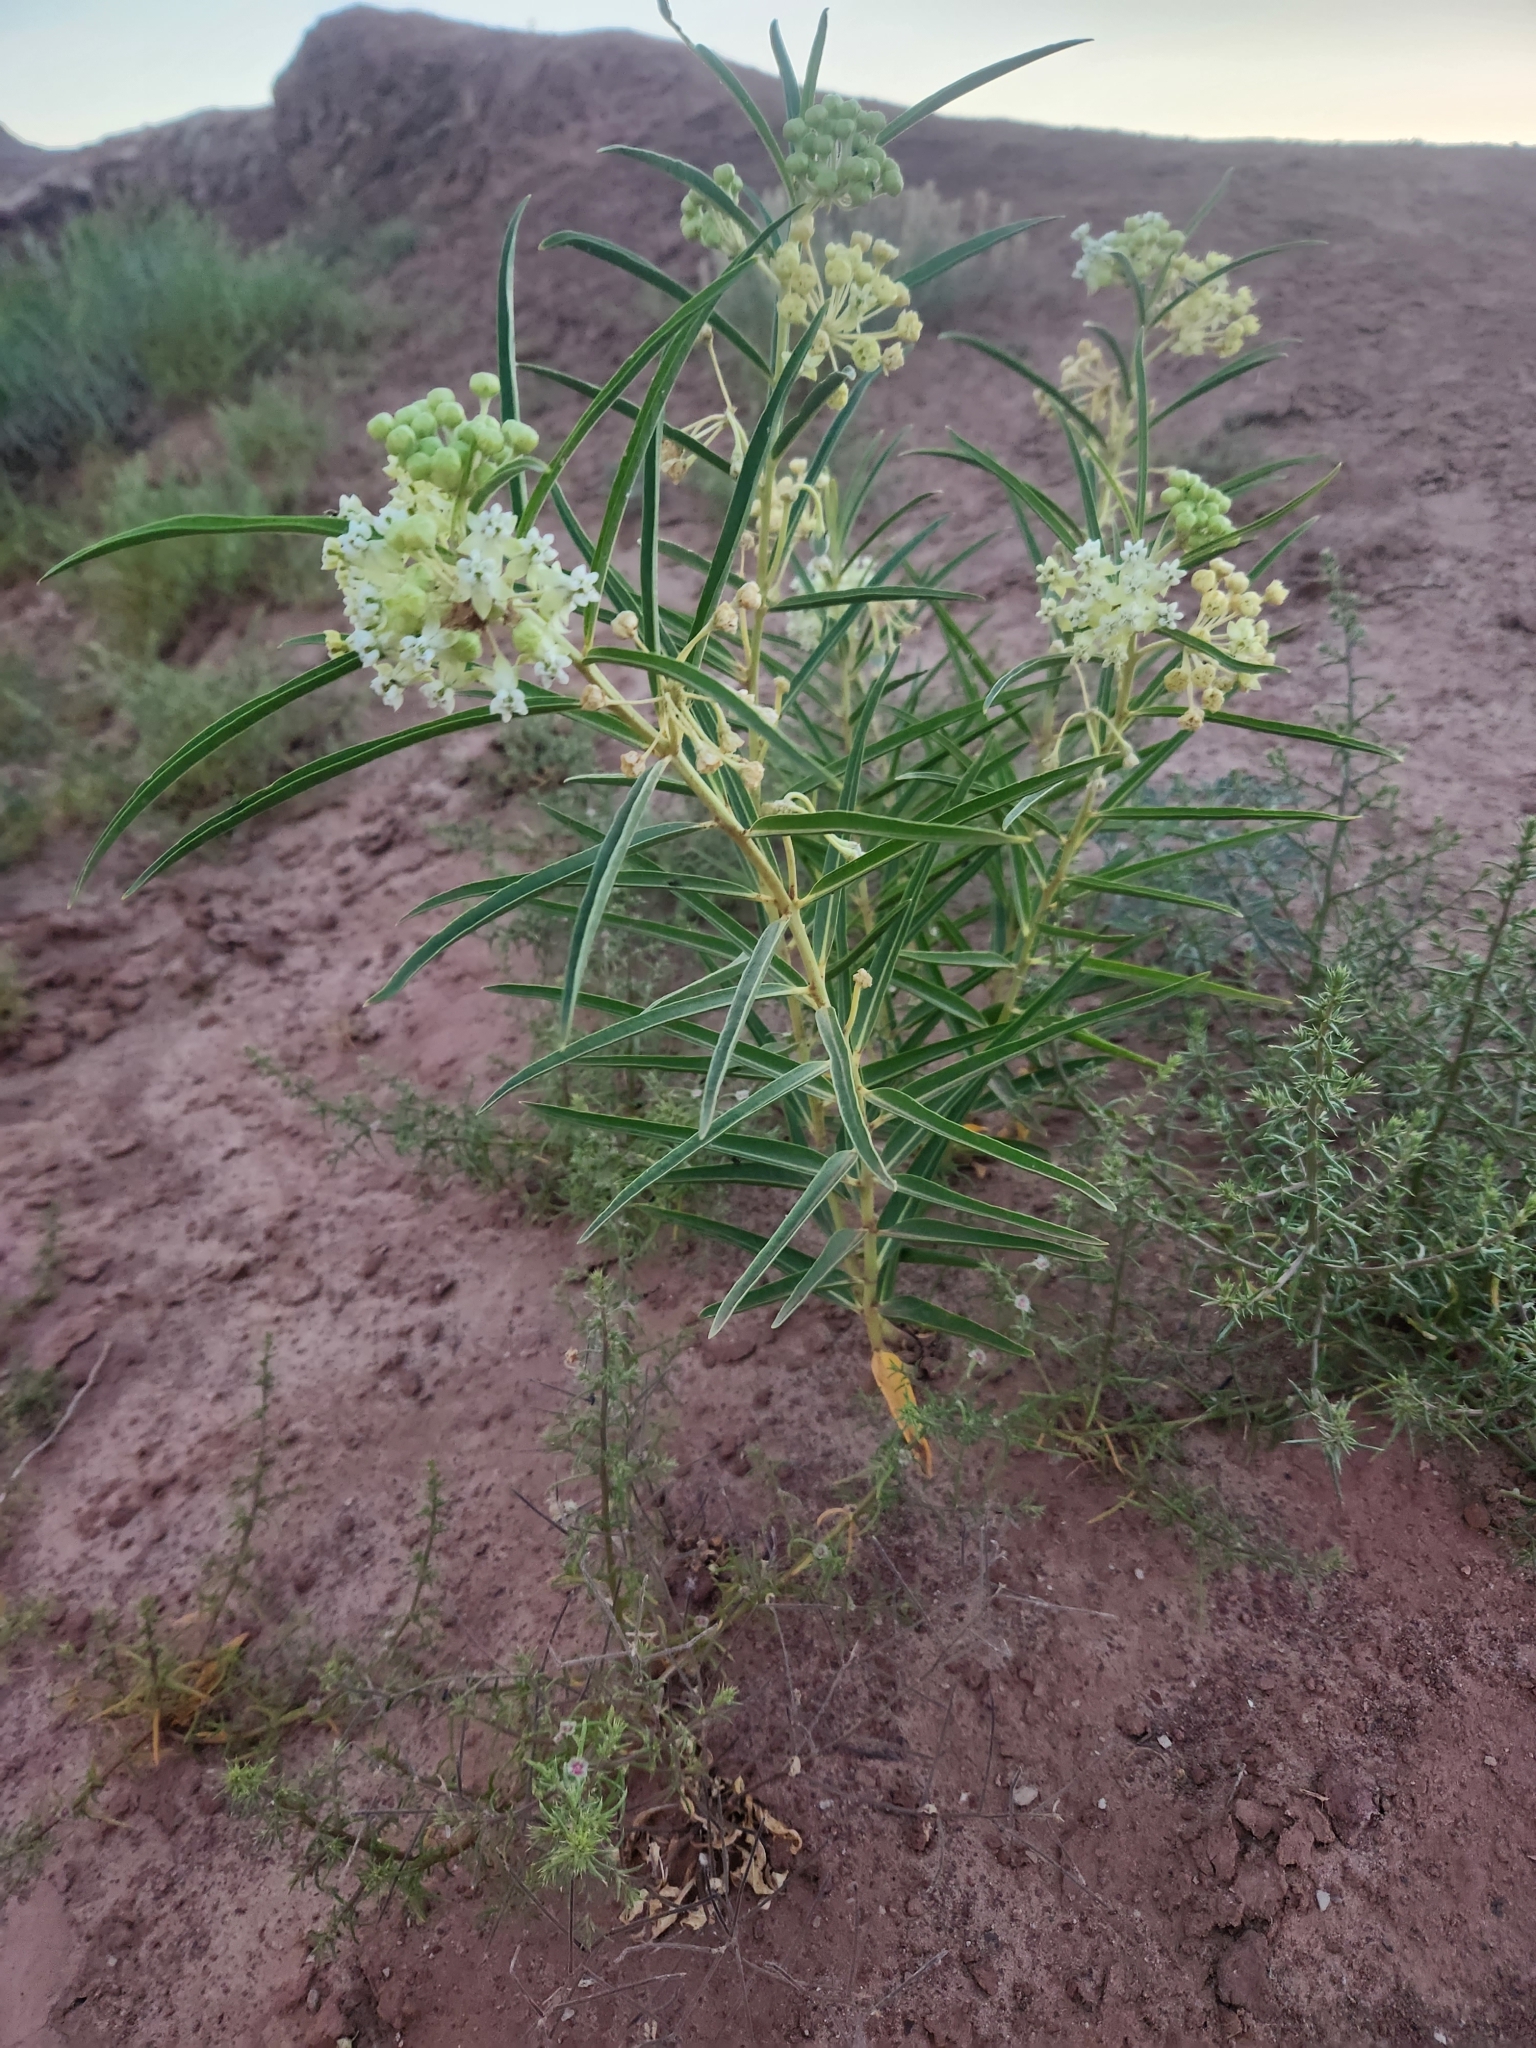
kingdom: Plantae
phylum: Tracheophyta
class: Magnoliopsida
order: Gentianales
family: Apocynaceae
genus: Asclepias
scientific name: Asclepias labriformis
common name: Labriformis milkweed
